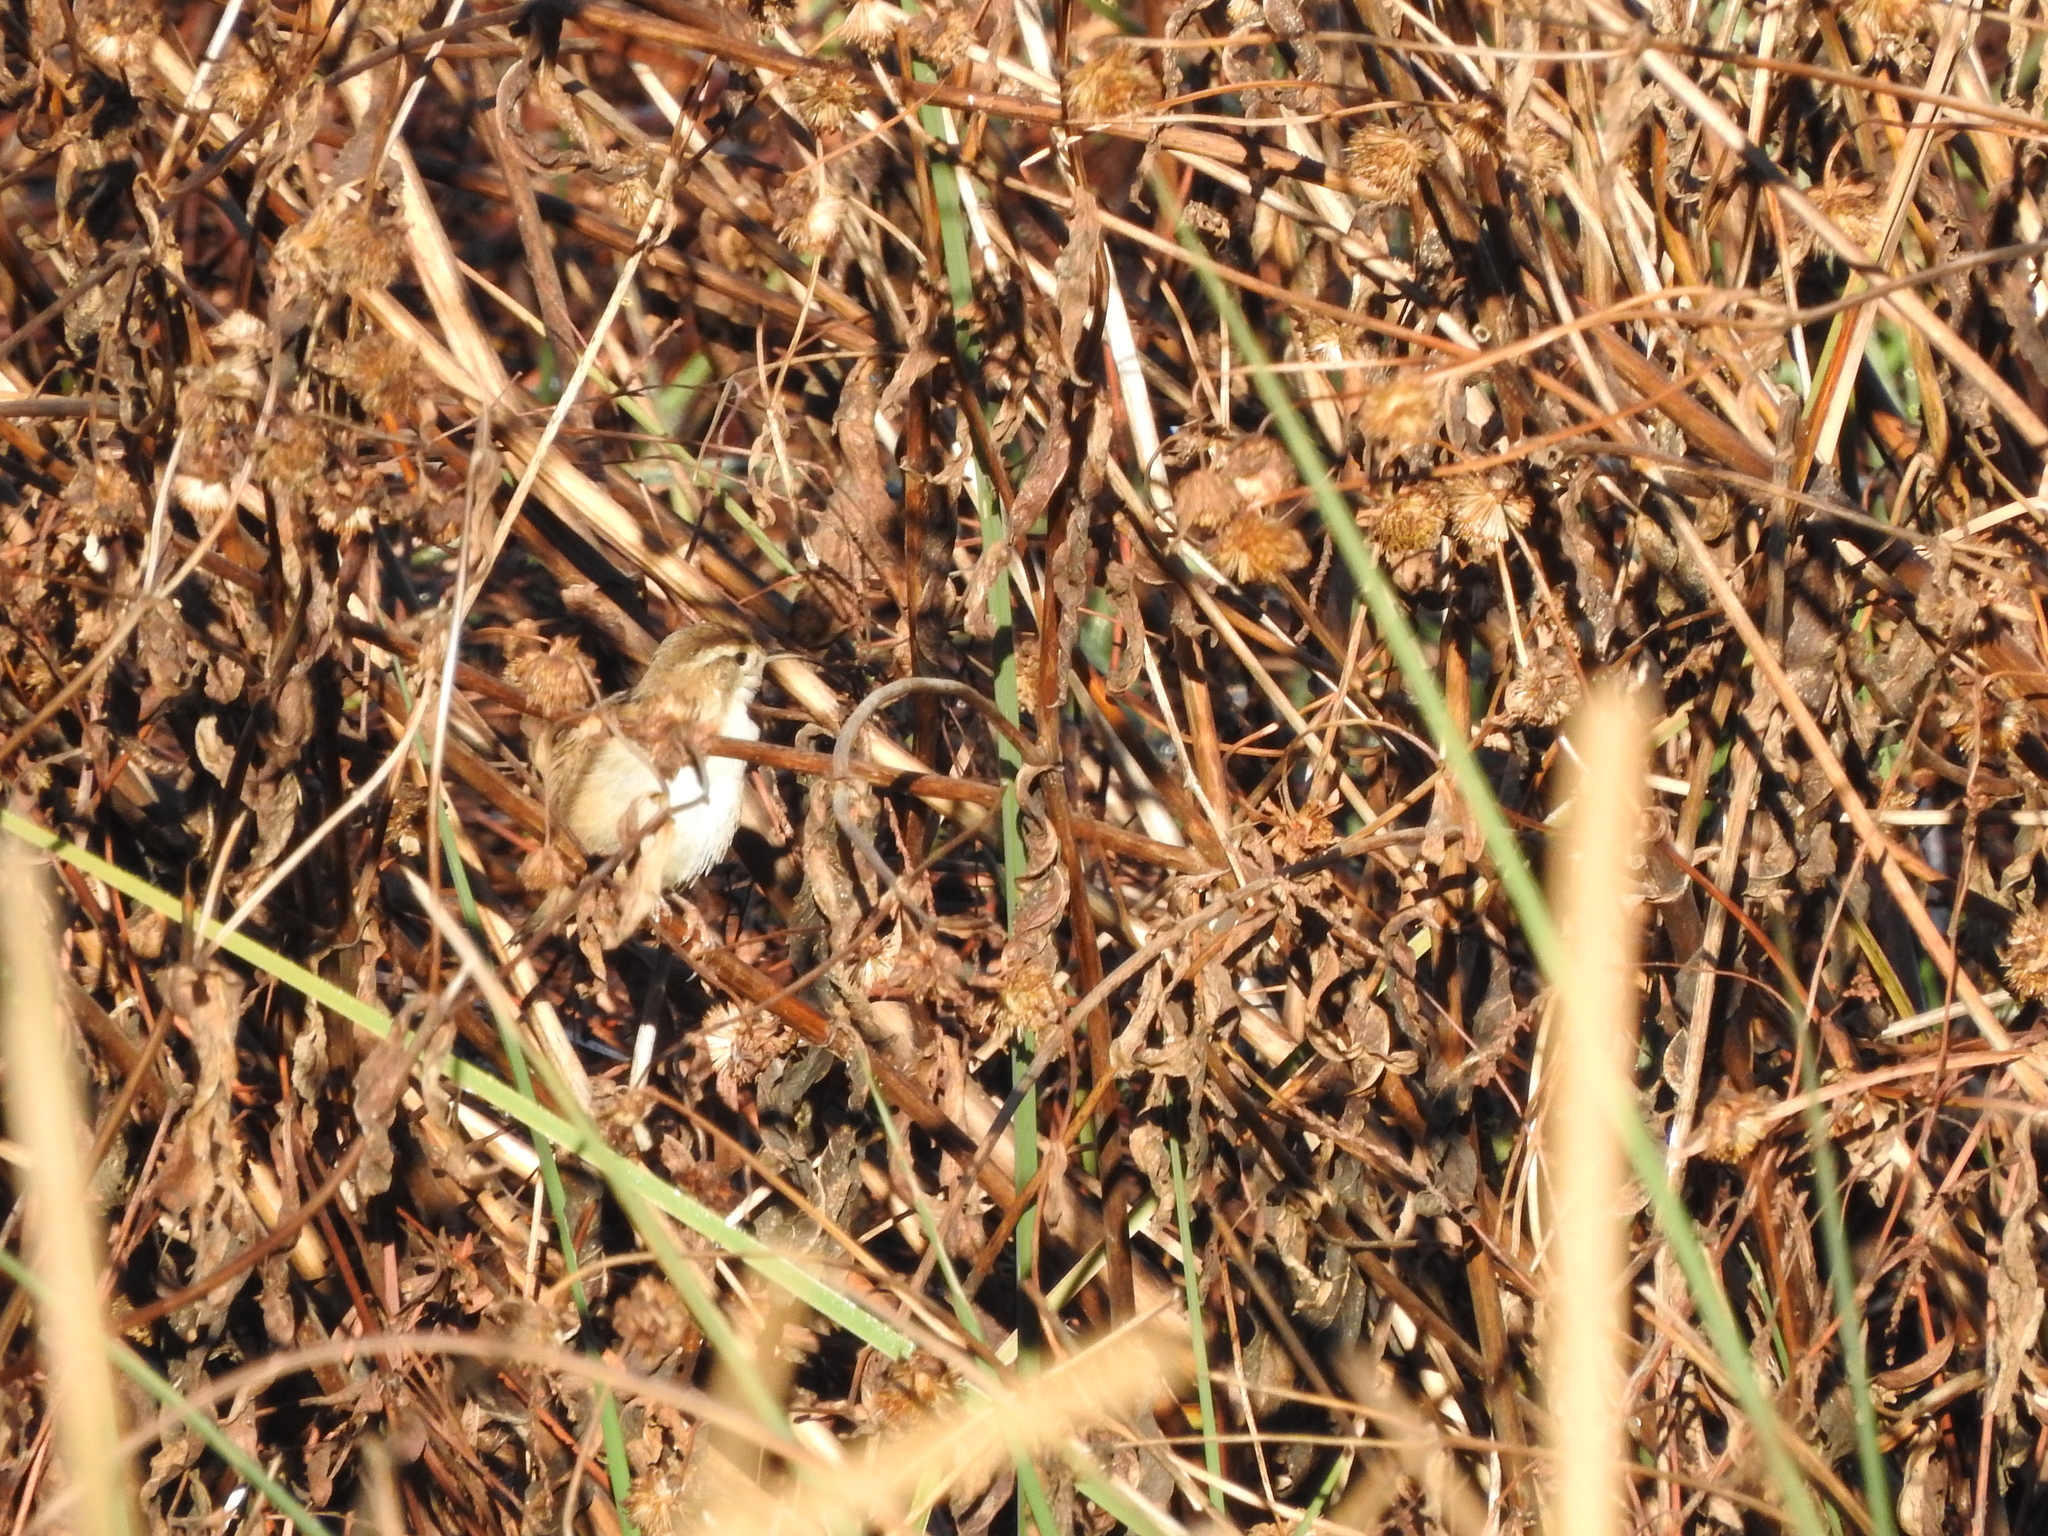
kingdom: Animalia
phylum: Chordata
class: Aves
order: Passeriformes
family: Troglodytidae
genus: Cistothorus
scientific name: Cistothorus palustris
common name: Marsh wren
